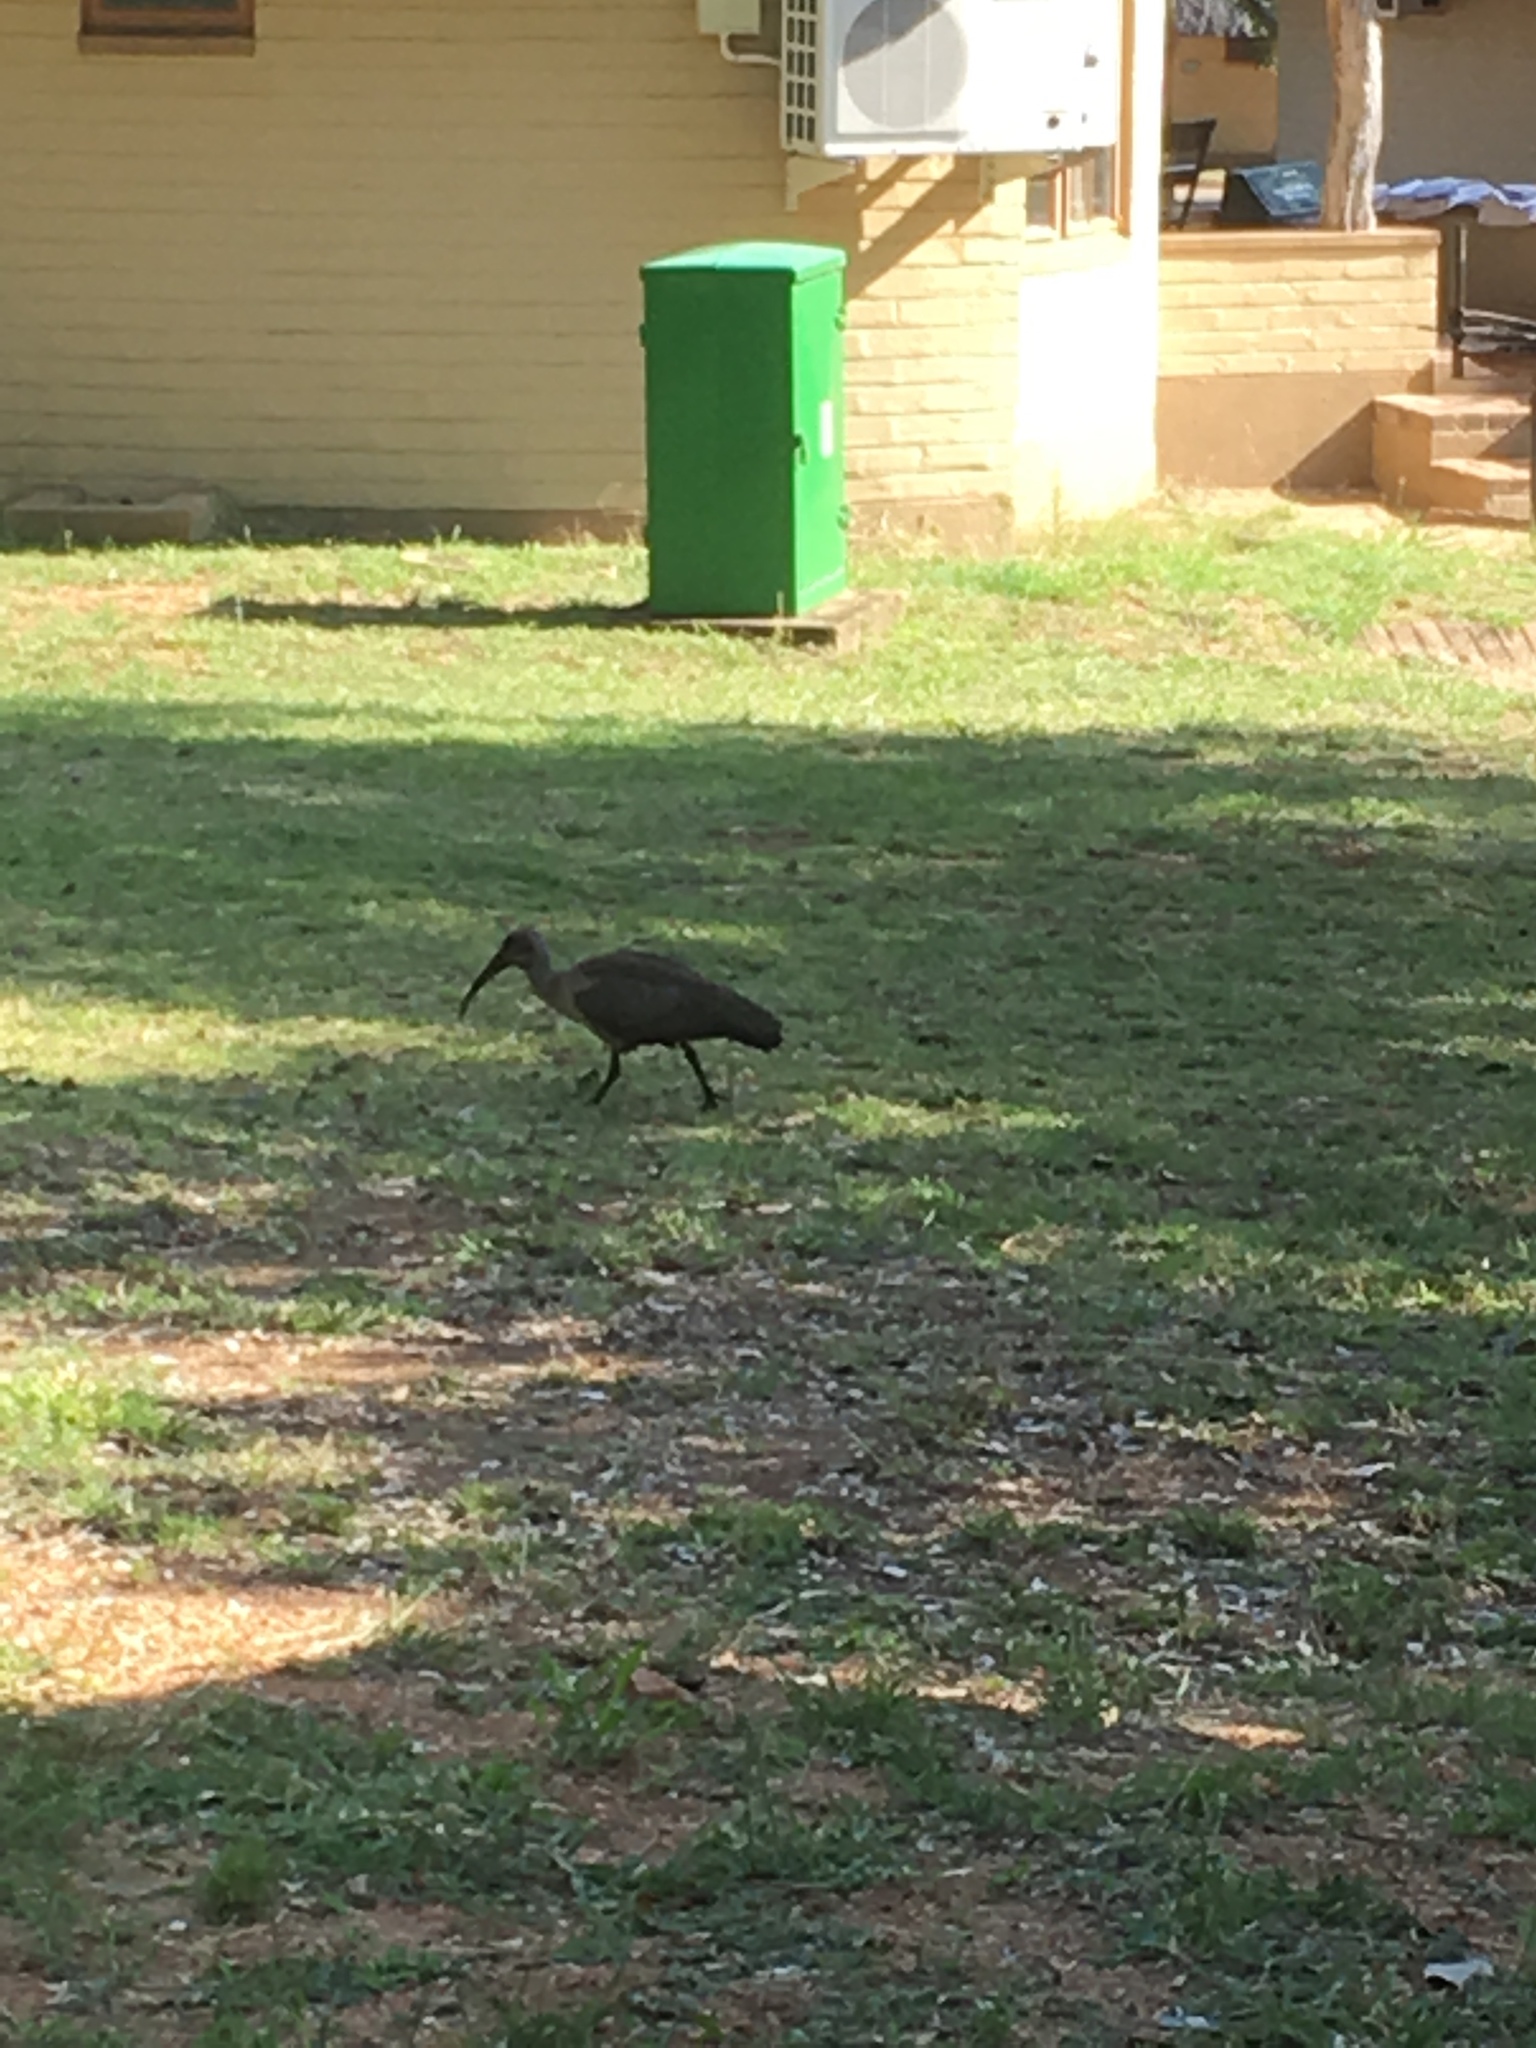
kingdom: Animalia
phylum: Chordata
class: Aves
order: Pelecaniformes
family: Threskiornithidae
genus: Bostrychia
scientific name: Bostrychia hagedash
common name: Hadada ibis
